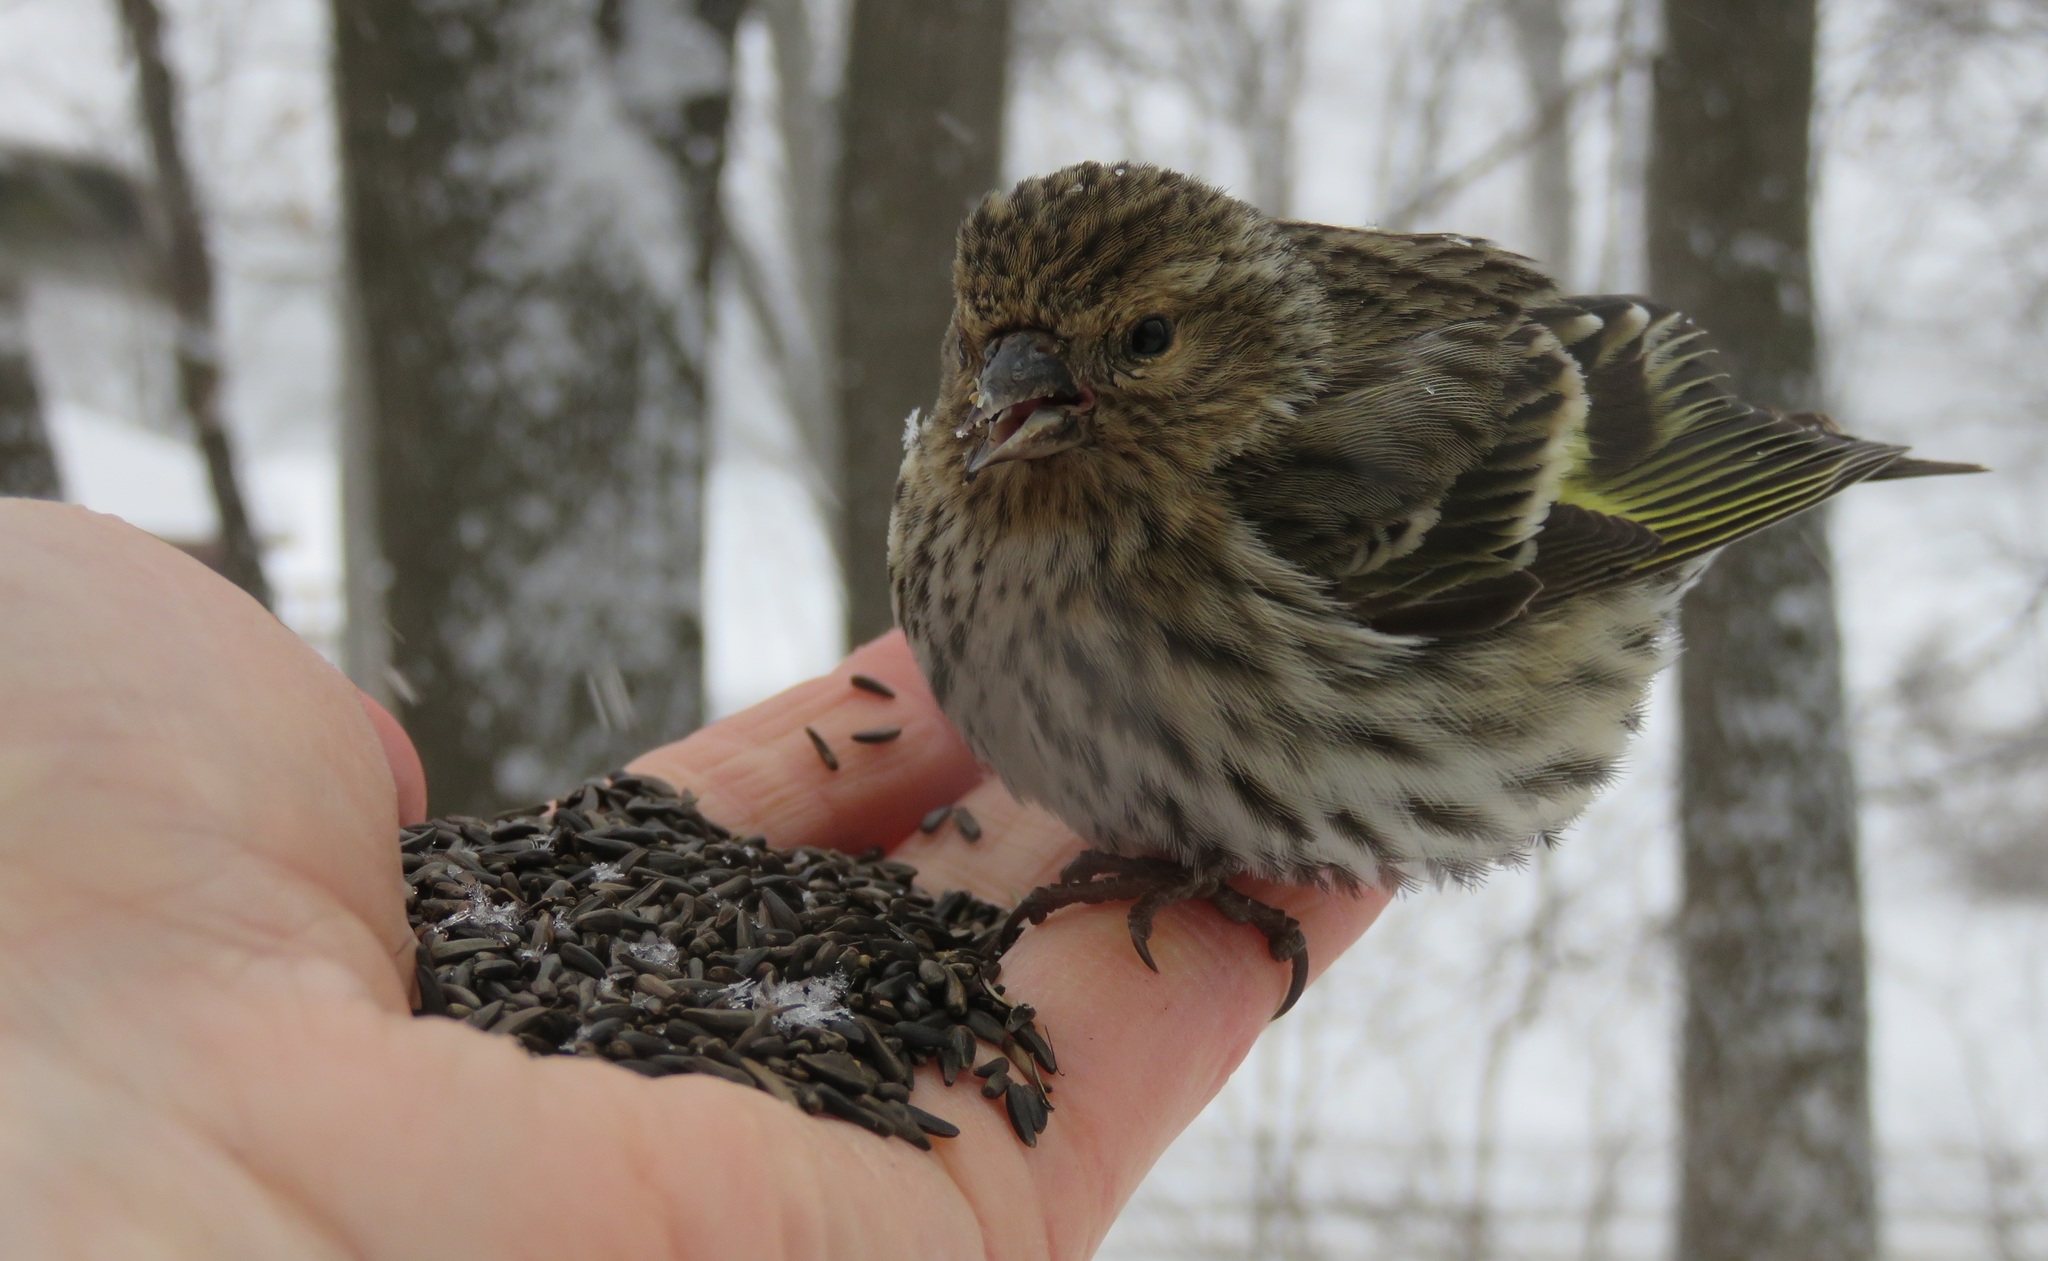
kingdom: Animalia
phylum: Chordata
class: Aves
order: Passeriformes
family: Fringillidae
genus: Spinus
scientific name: Spinus pinus
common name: Pine siskin
